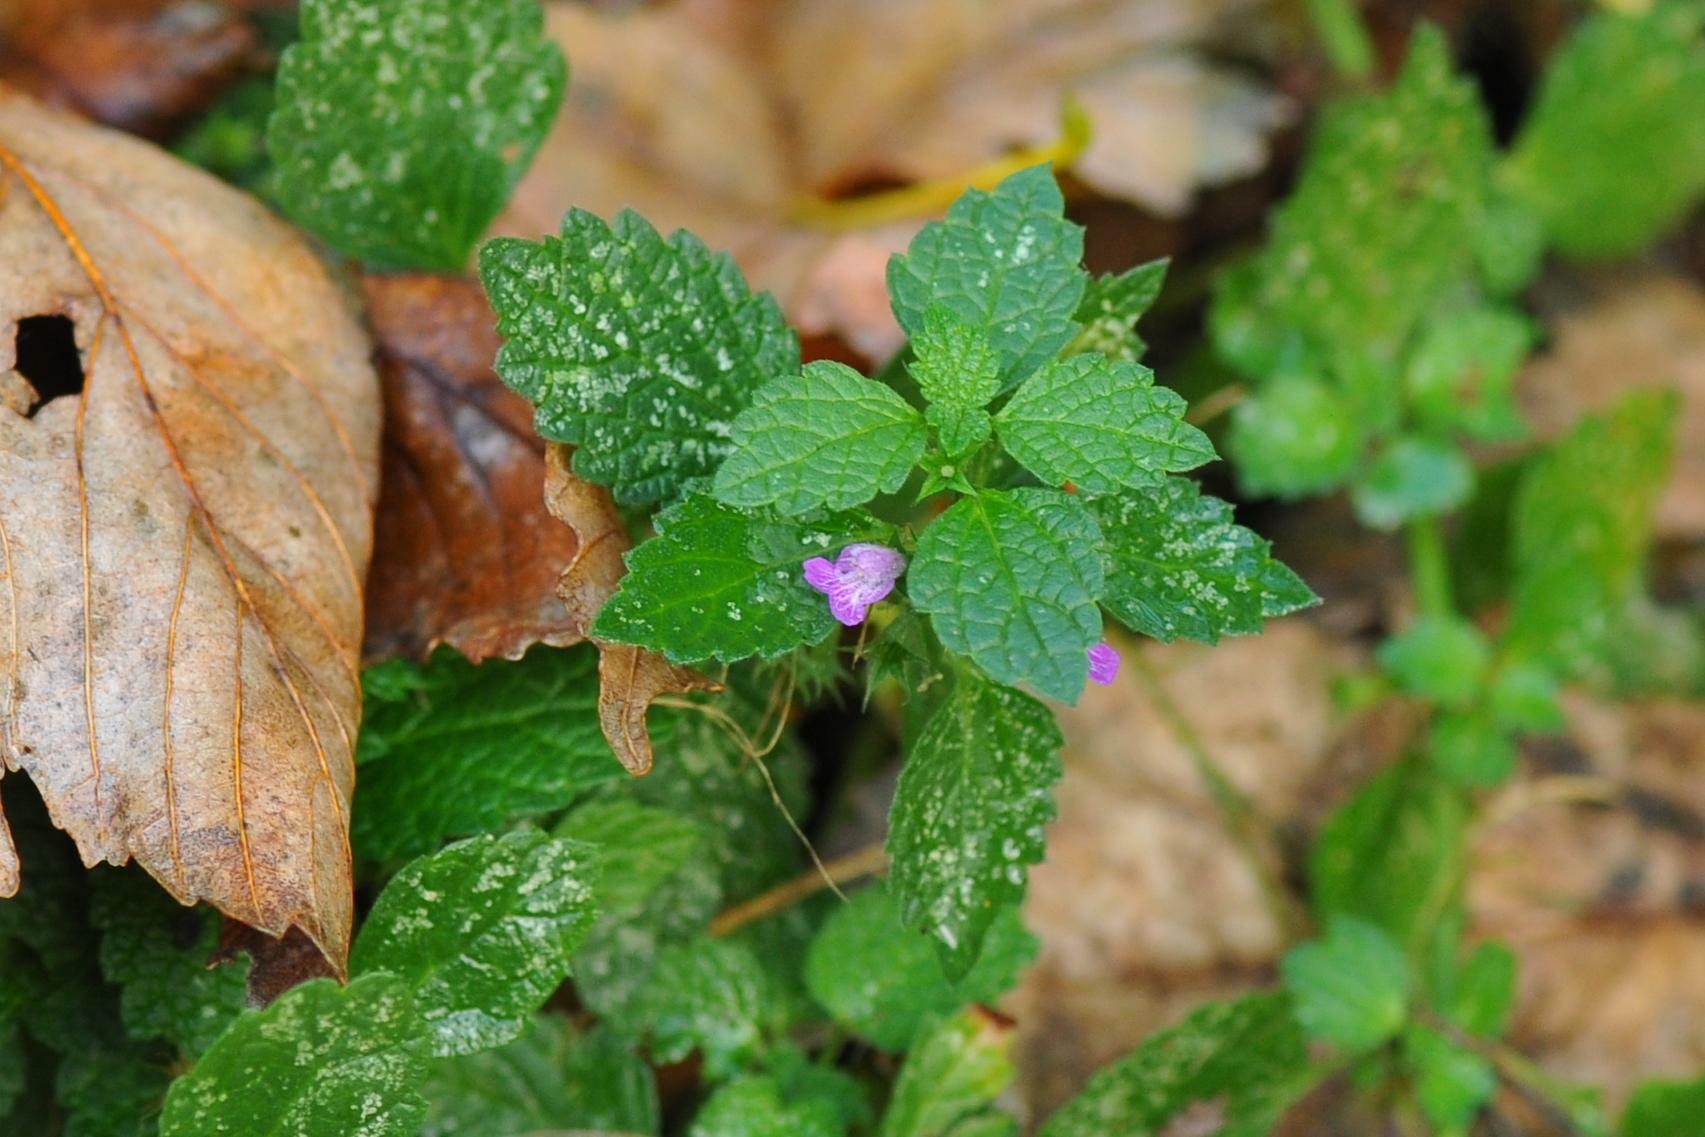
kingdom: Plantae
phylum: Tracheophyta
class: Magnoliopsida
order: Lamiales
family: Lamiaceae
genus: Ballota
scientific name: Ballota nigra
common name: Black horehound
